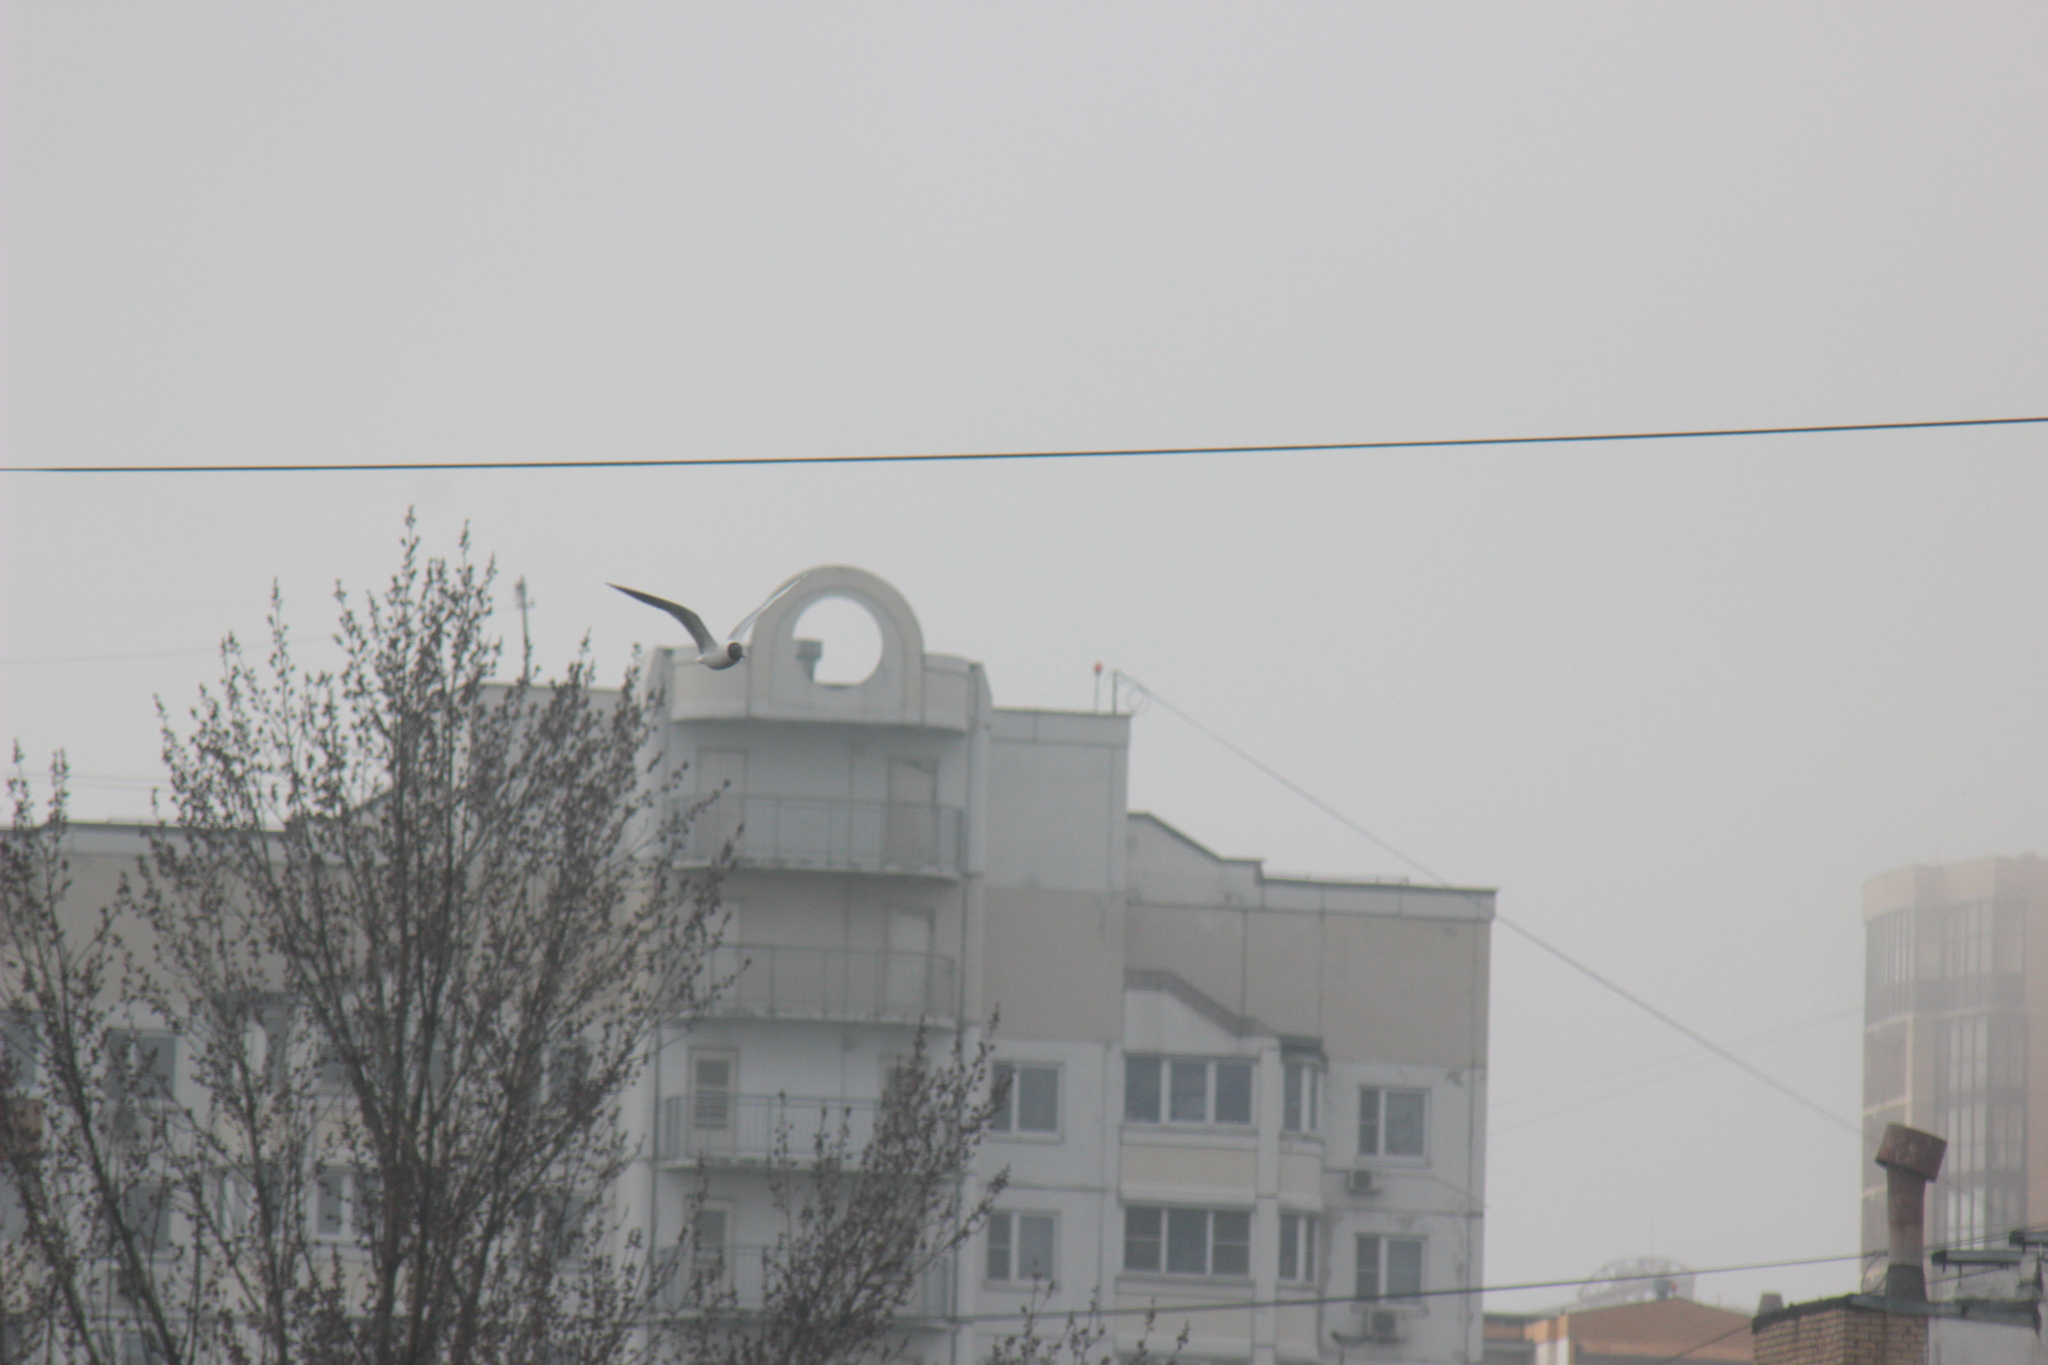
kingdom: Animalia
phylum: Chordata
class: Aves
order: Charadriiformes
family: Laridae
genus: Chroicocephalus
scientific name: Chroicocephalus ridibundus
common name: Black-headed gull
